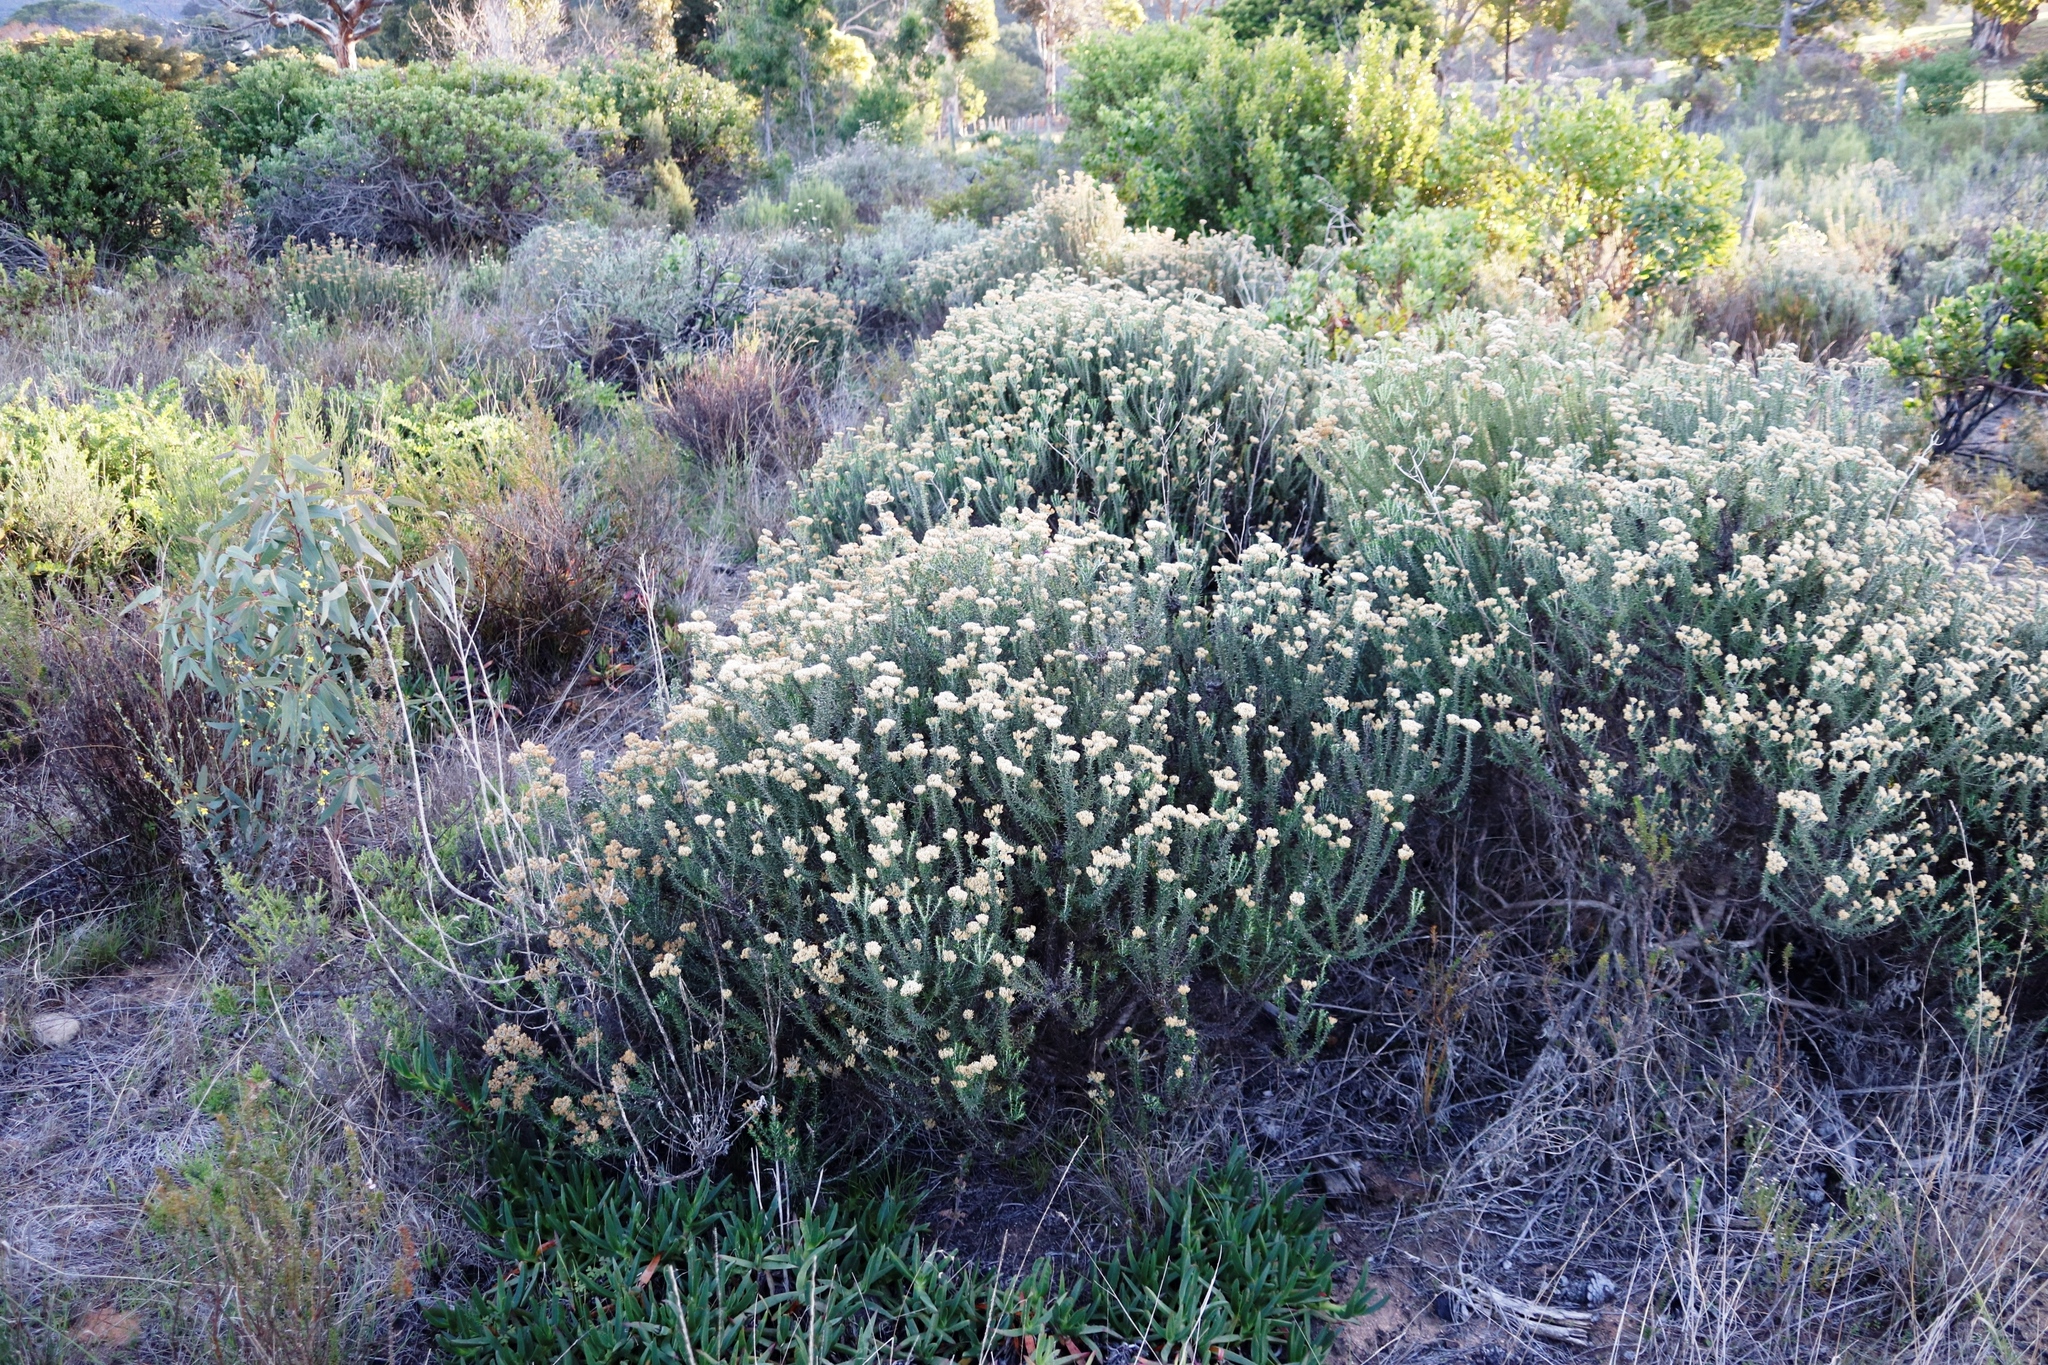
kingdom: Plantae
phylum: Tracheophyta
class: Magnoliopsida
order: Asterales
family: Asteraceae
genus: Metalasia
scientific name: Metalasia densa
